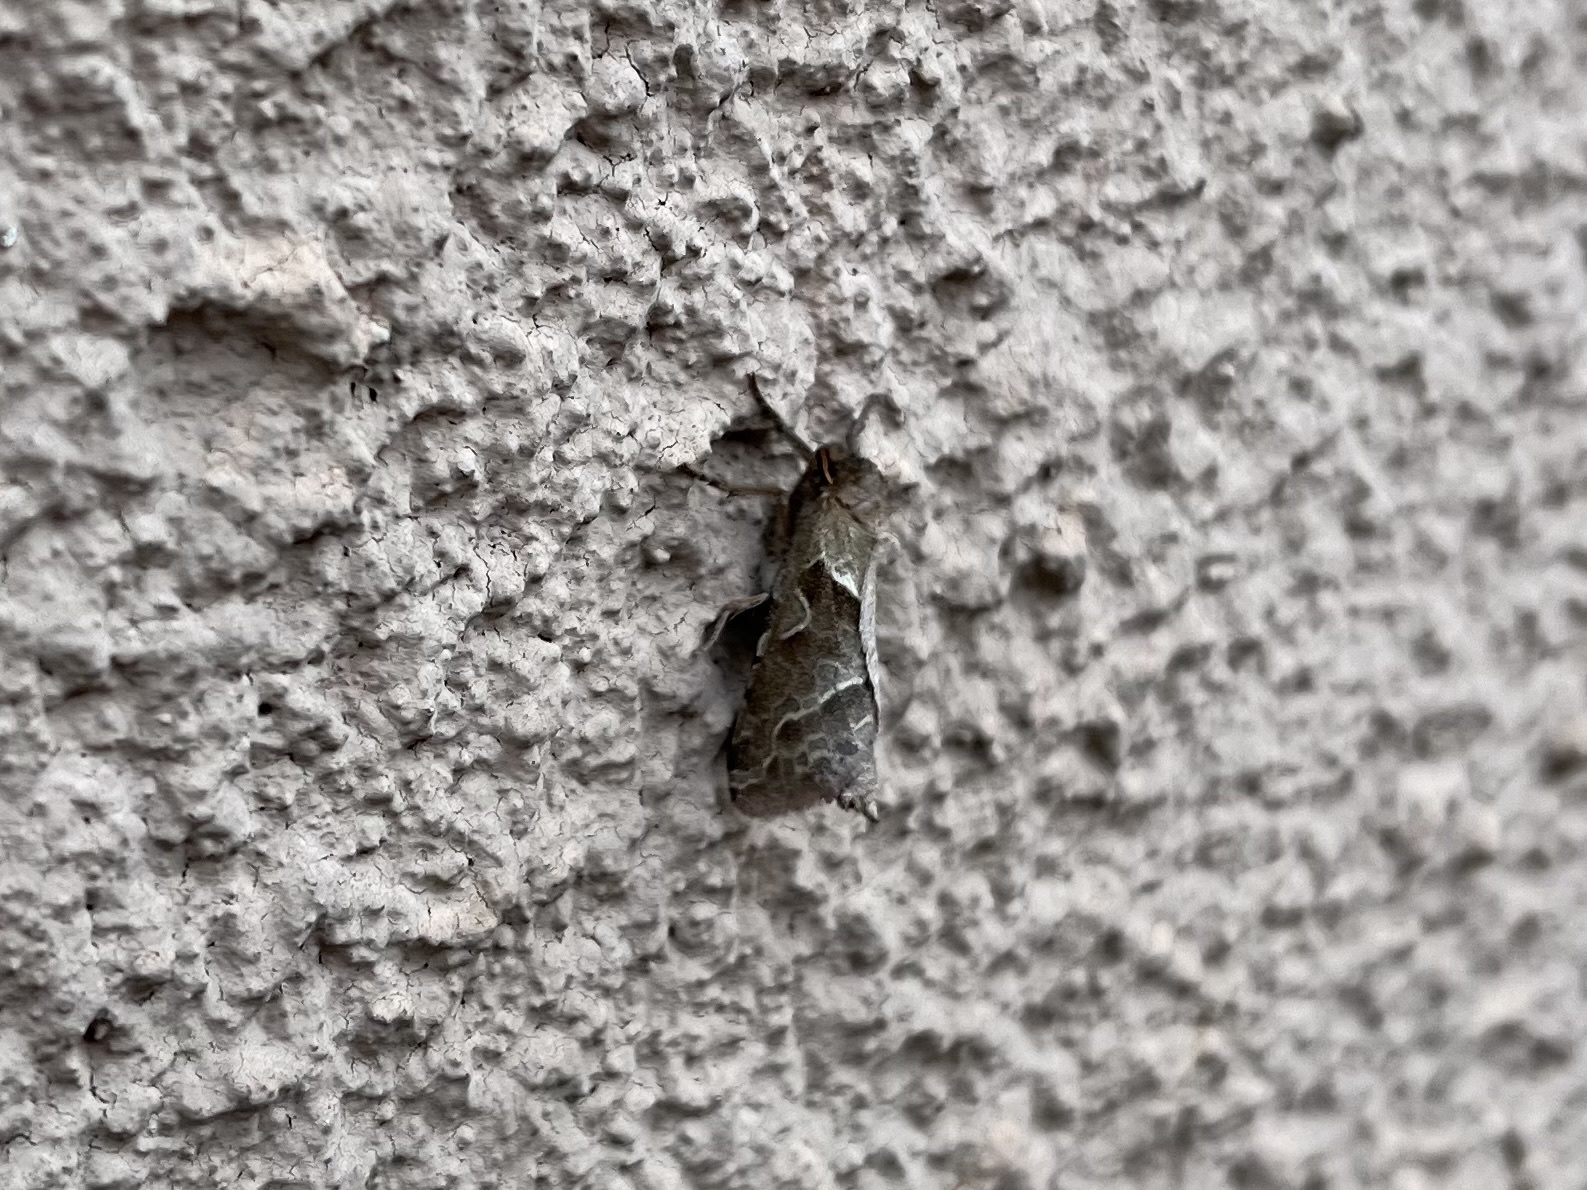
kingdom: Animalia
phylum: Arthropoda
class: Insecta
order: Lepidoptera
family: Hepialidae
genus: Triodia
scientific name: Triodia sylvina
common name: Orange swift
